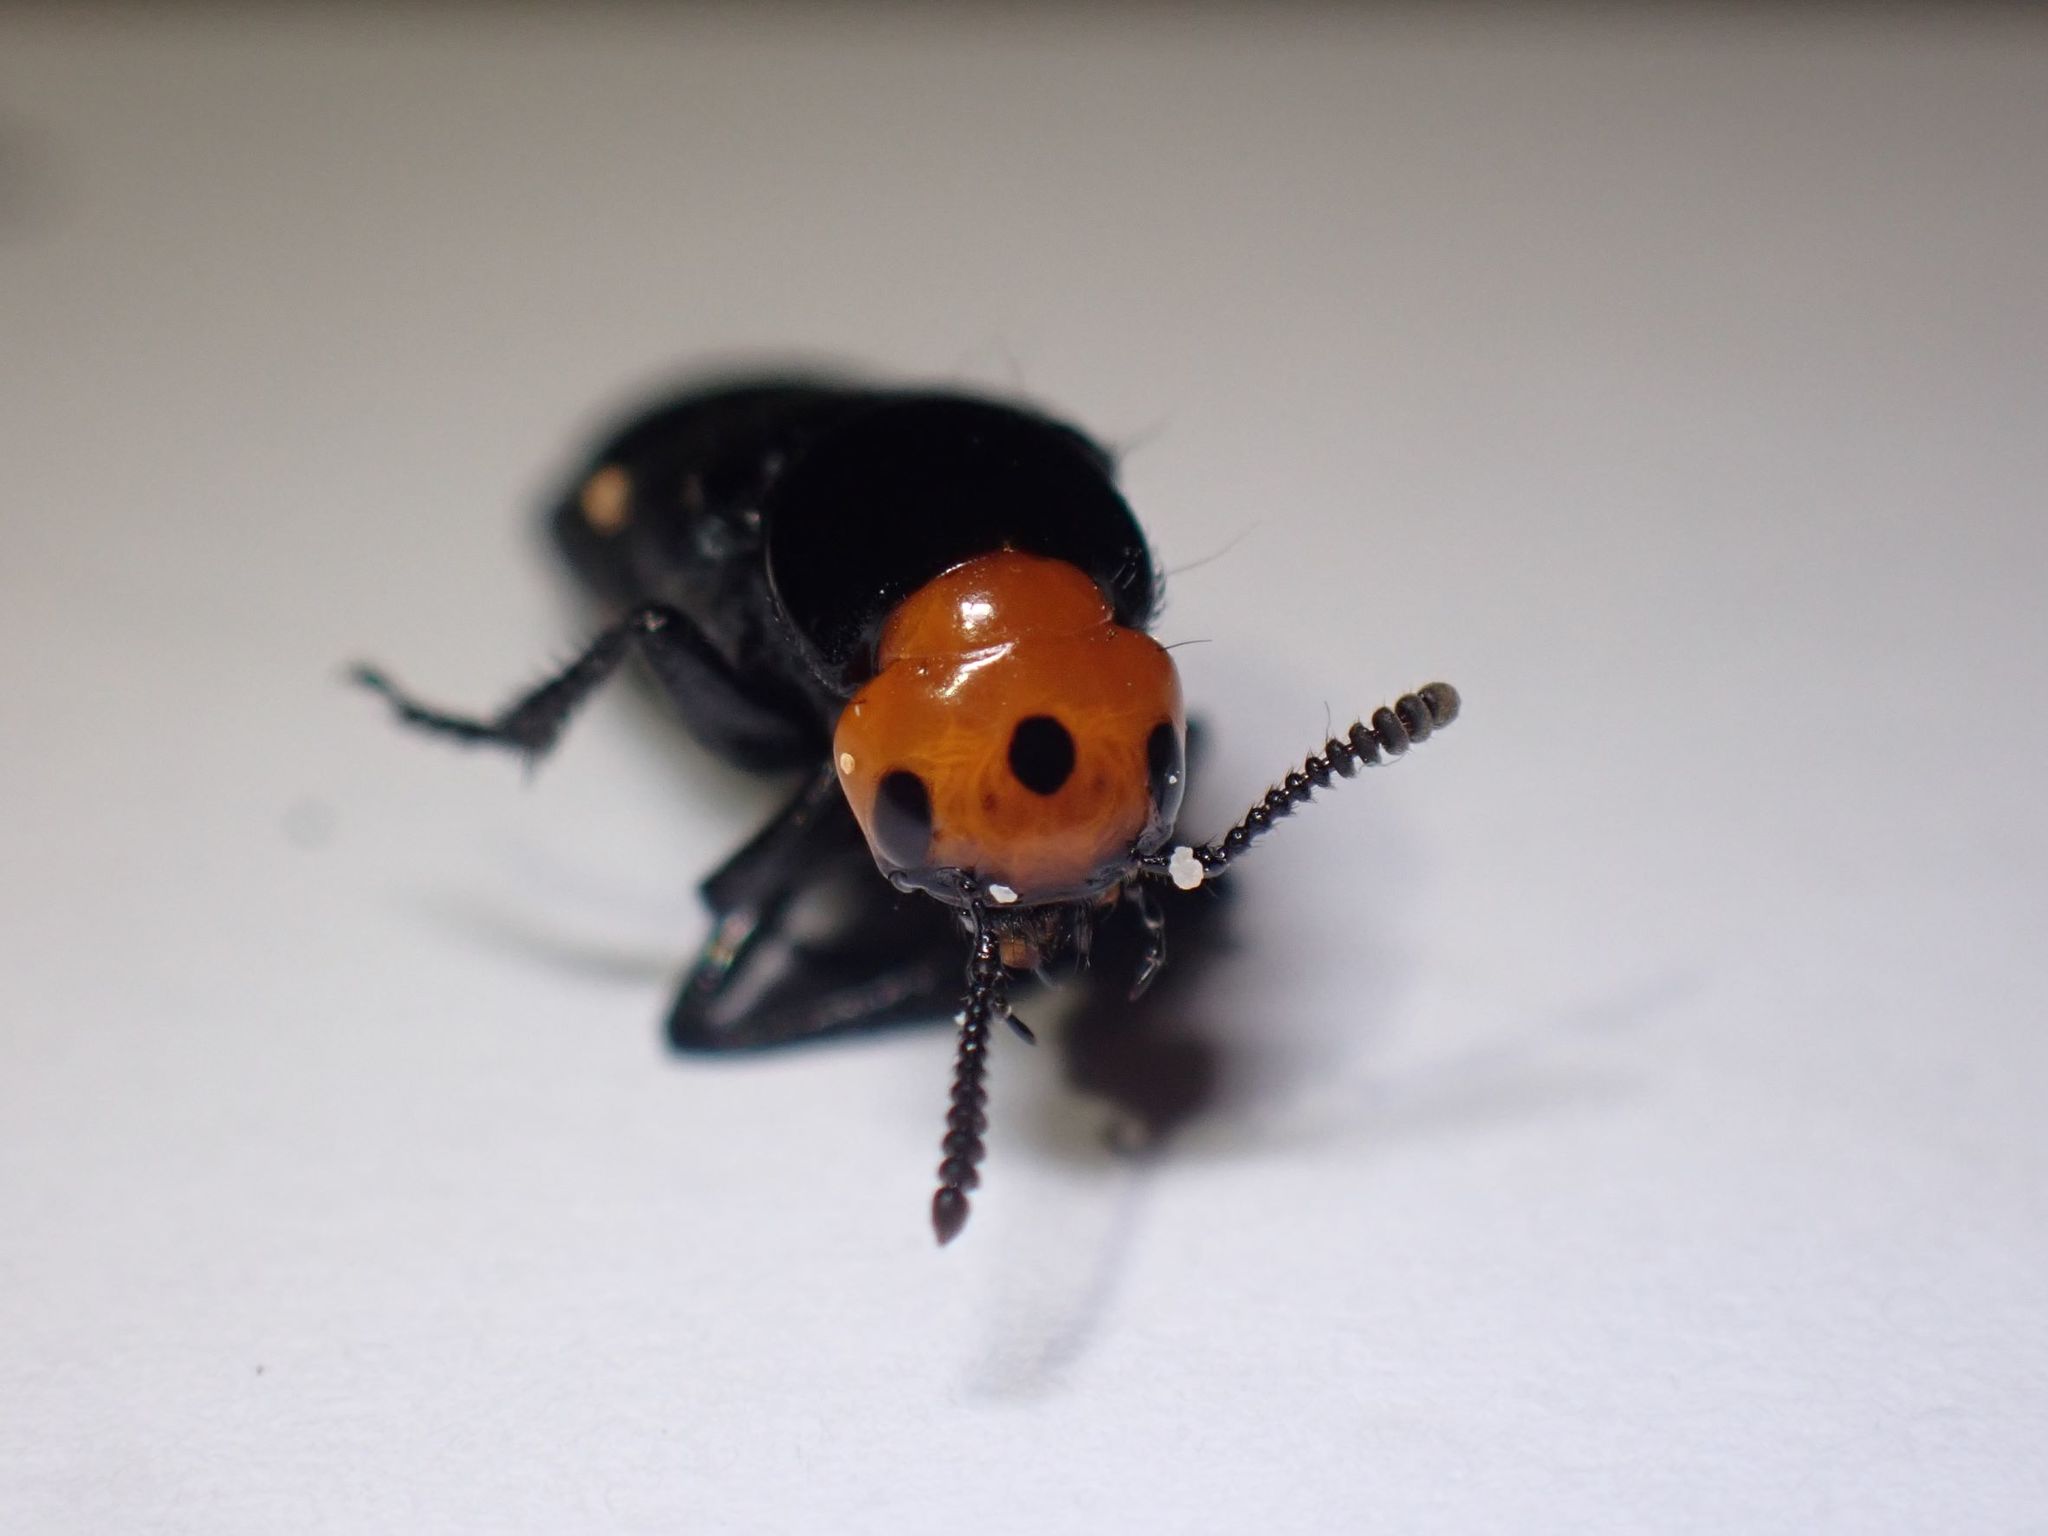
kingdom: Animalia
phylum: Arthropoda
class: Insecta
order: Coleoptera
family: Staphylinidae
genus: Creophilus
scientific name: Creophilus erythrocephalus
